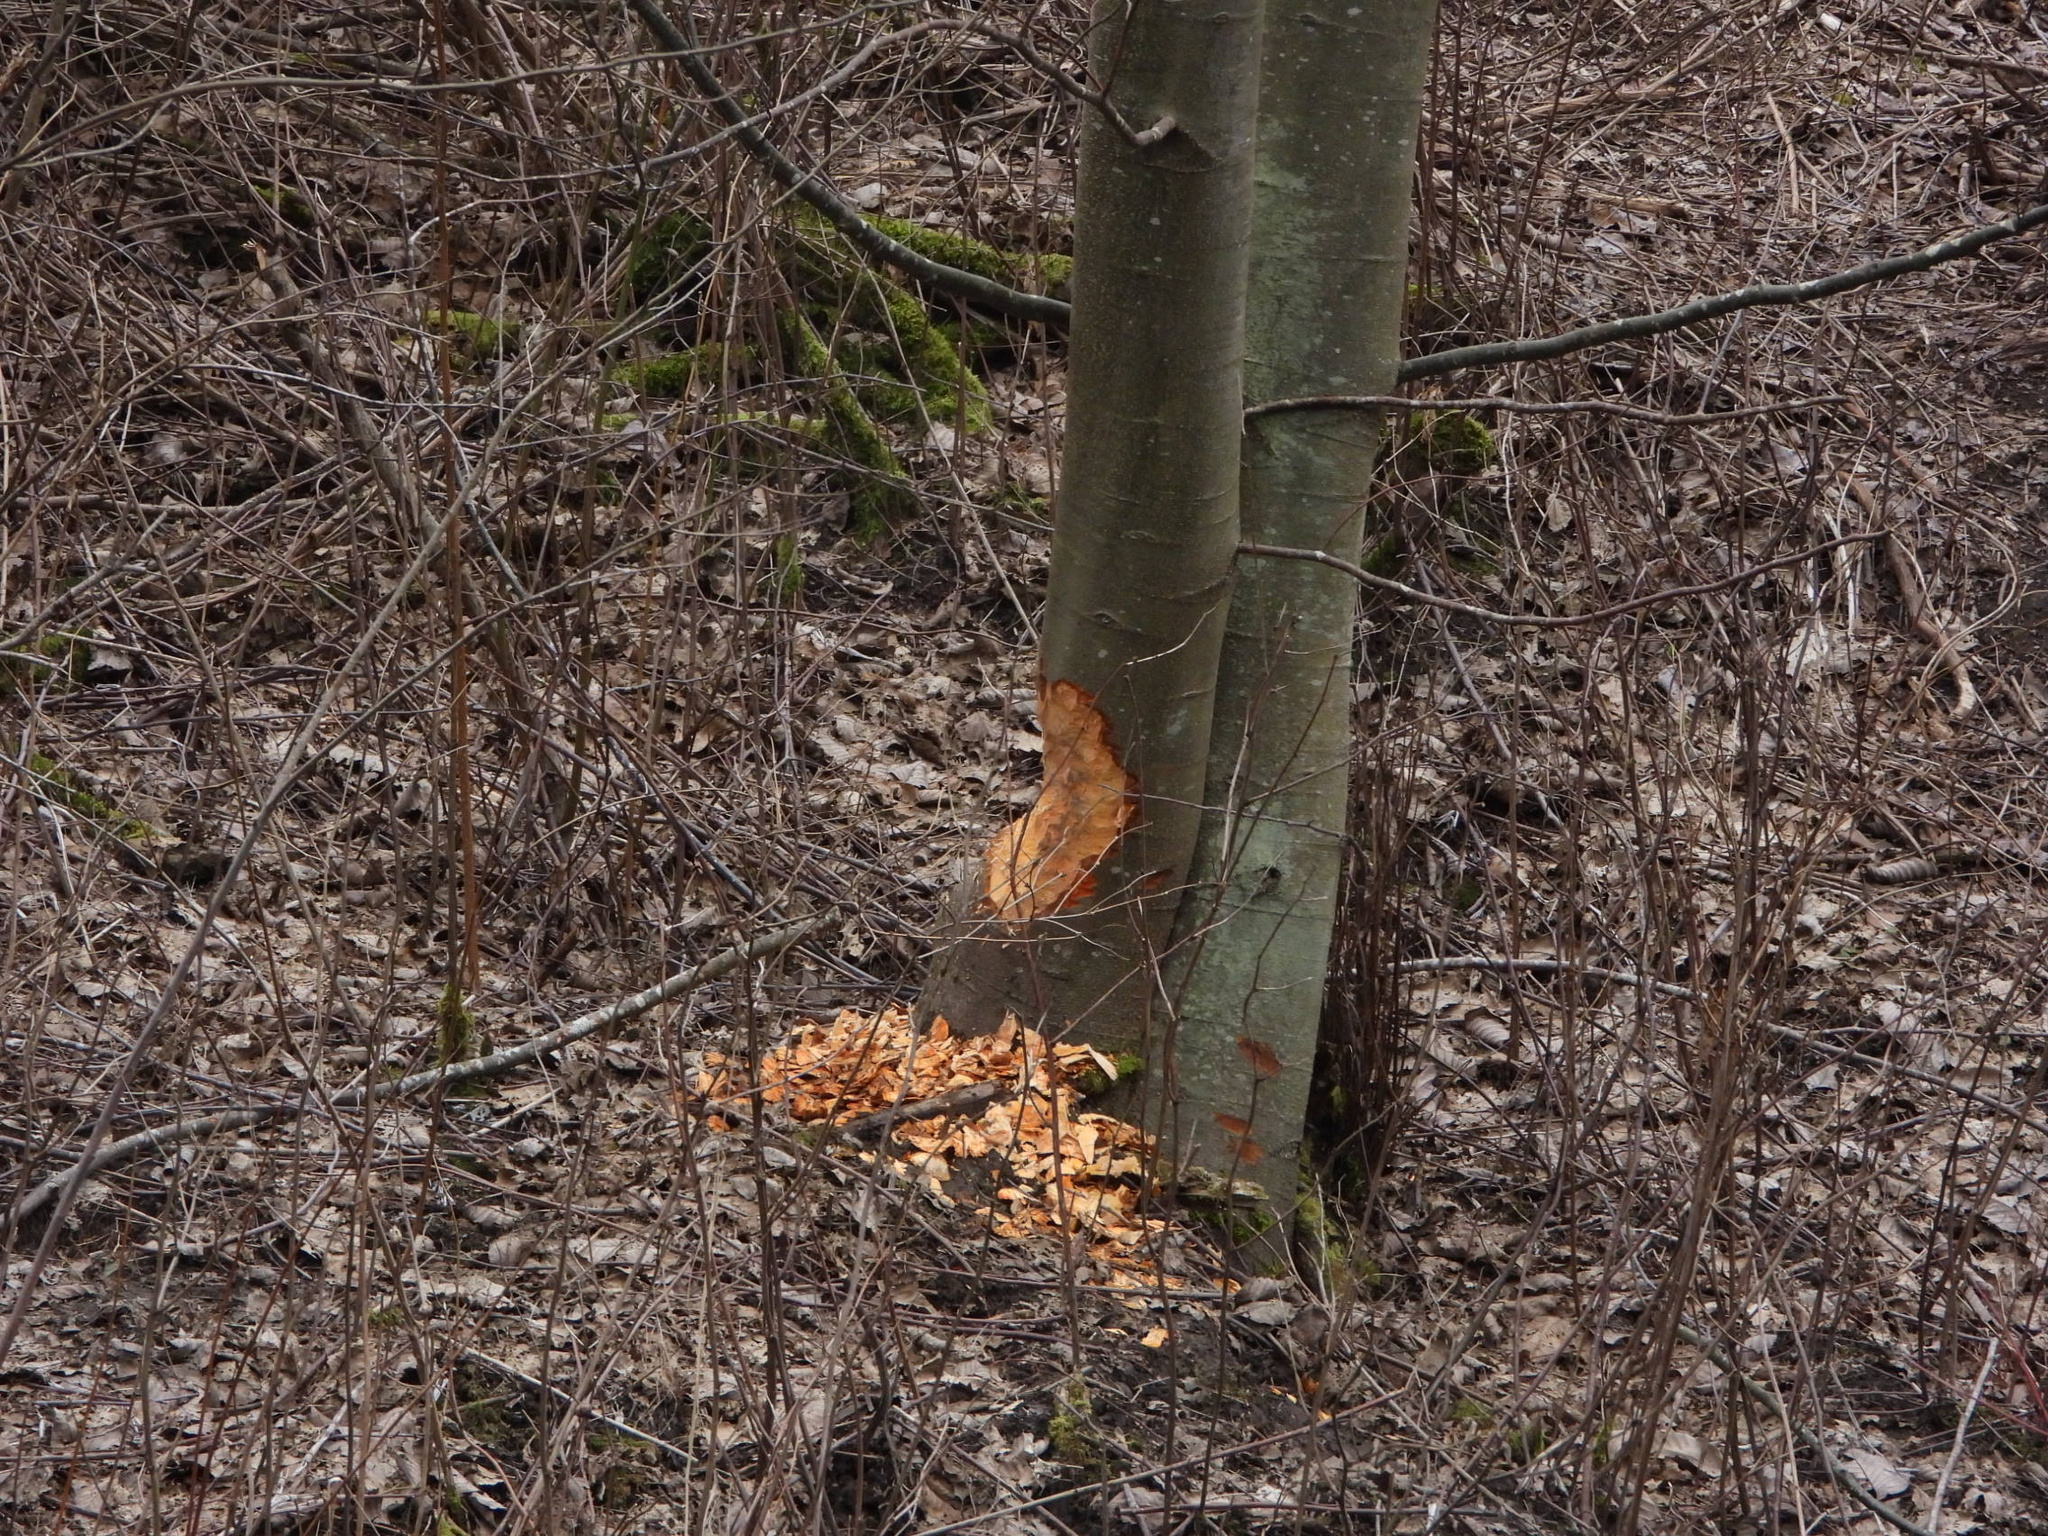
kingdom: Animalia
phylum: Chordata
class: Mammalia
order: Rodentia
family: Castoridae
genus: Castor
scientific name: Castor canadensis
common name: American beaver
